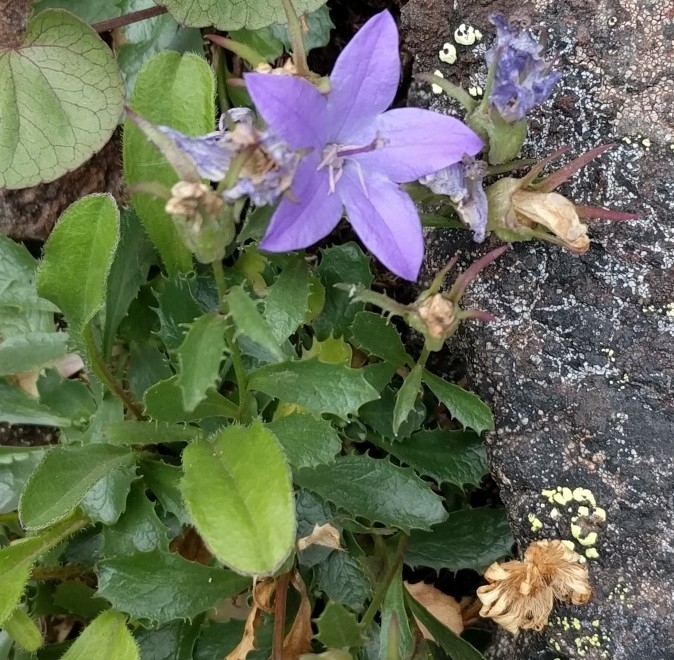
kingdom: Plantae
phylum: Tracheophyta
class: Magnoliopsida
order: Asterales
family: Campanulaceae
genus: Campanula
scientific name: Campanula piperi
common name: Olympic bellflower
